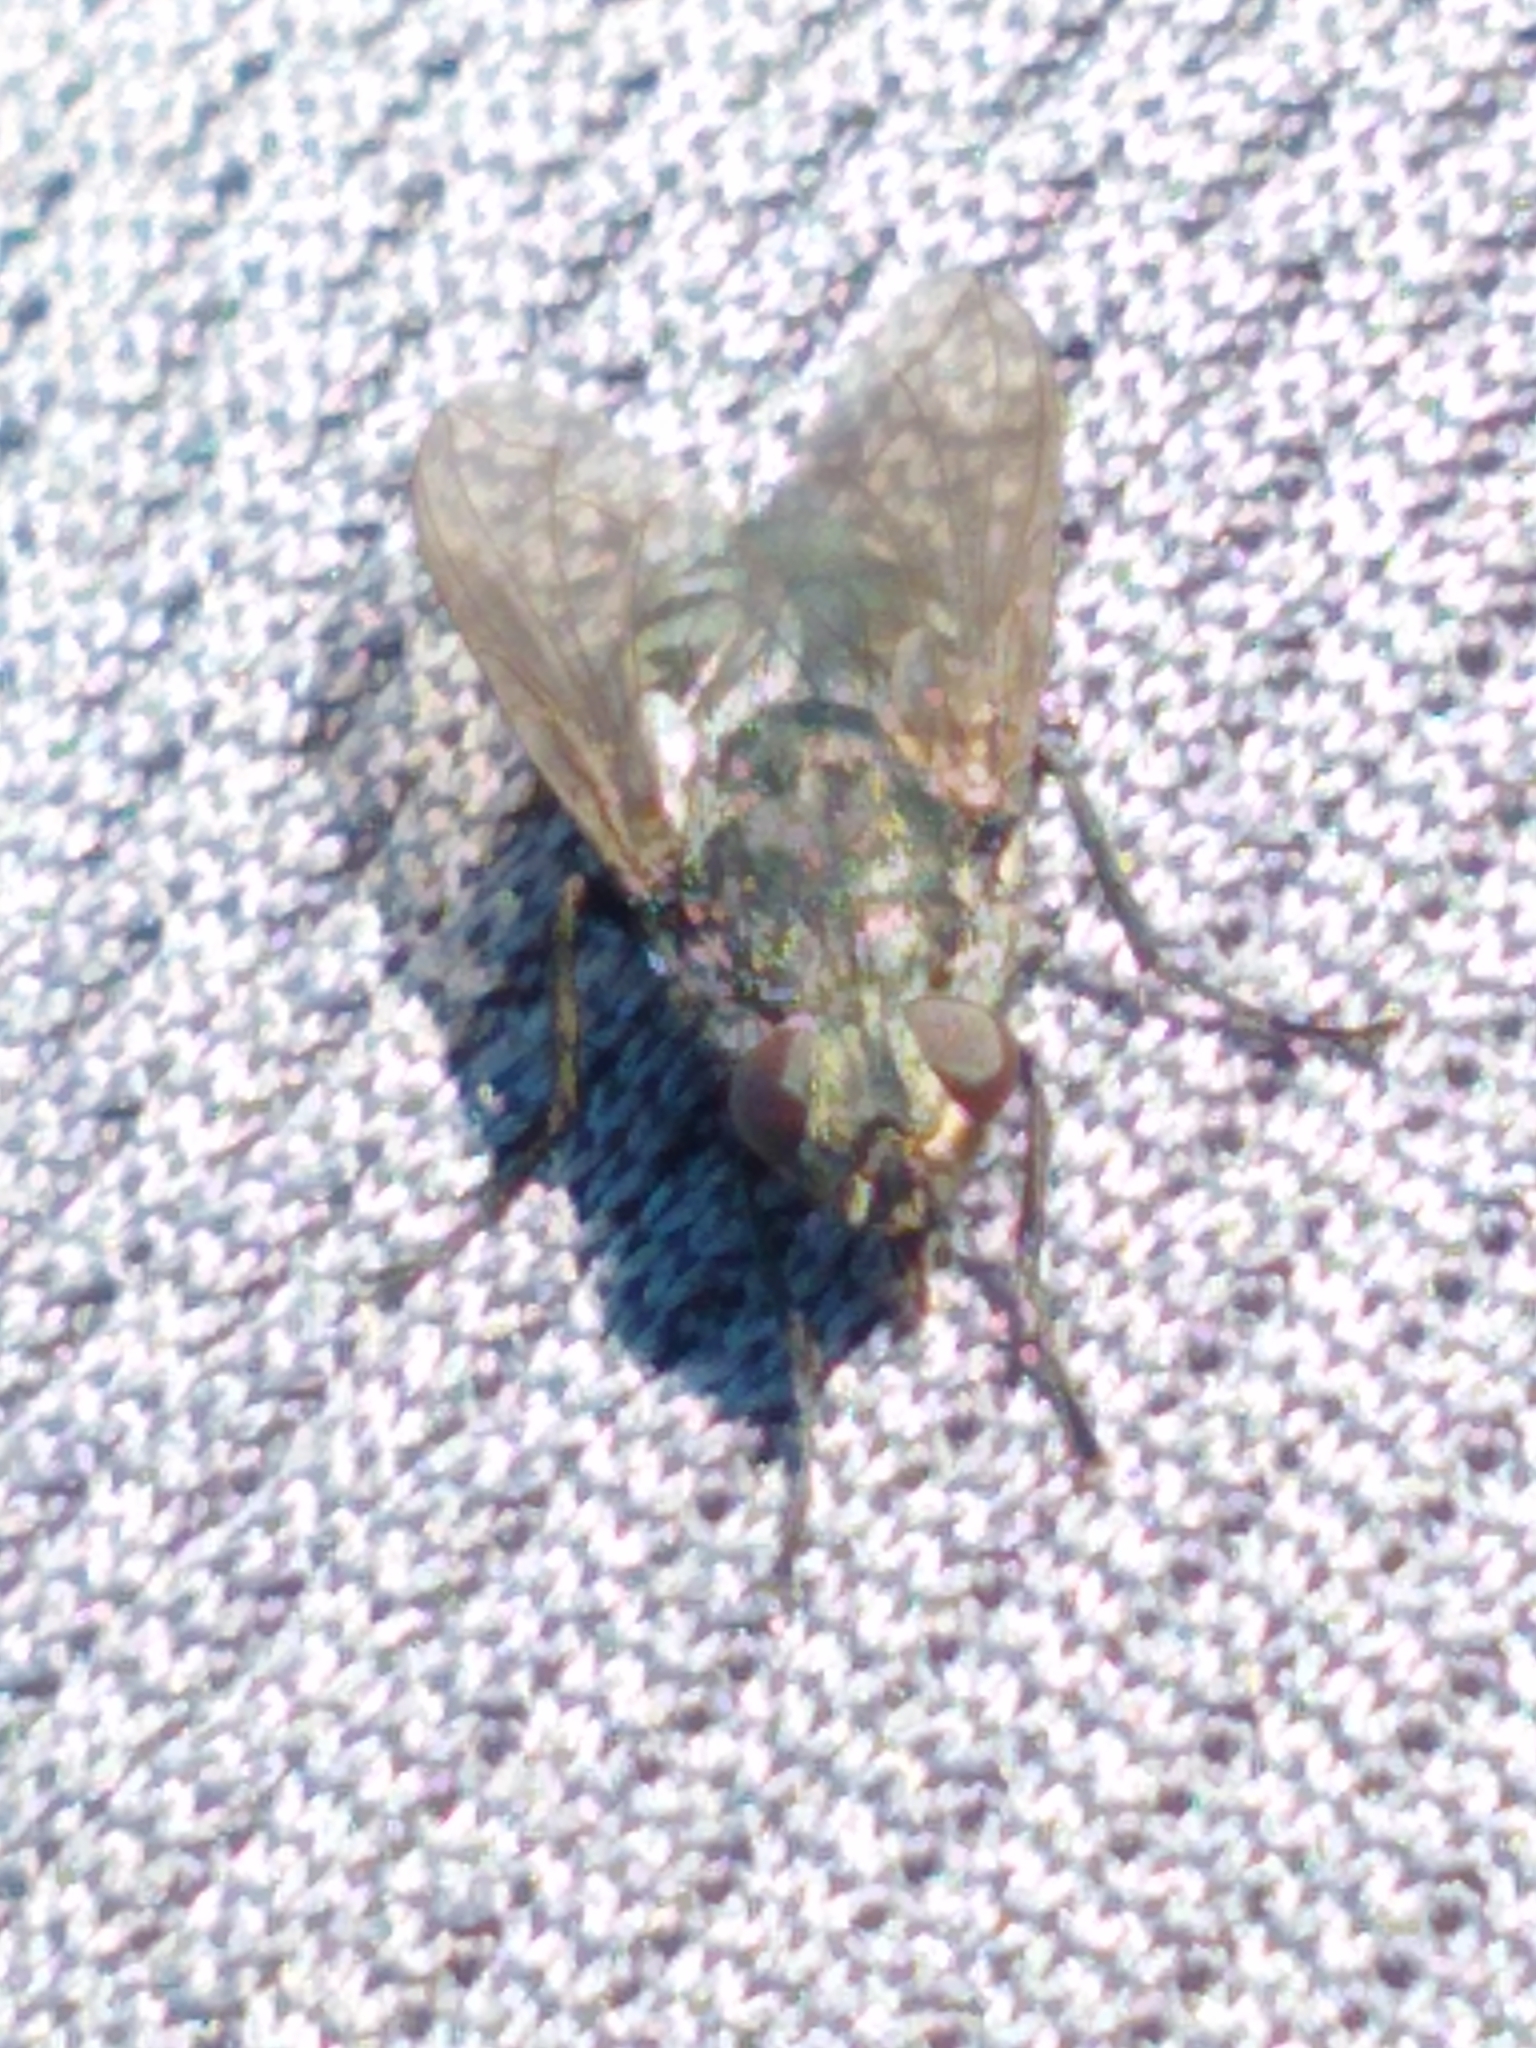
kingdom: Animalia
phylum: Arthropoda
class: Insecta
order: Diptera
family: Polleniidae
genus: Pollenia
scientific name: Pollenia vagabunda
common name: Vagabund cluster fly
